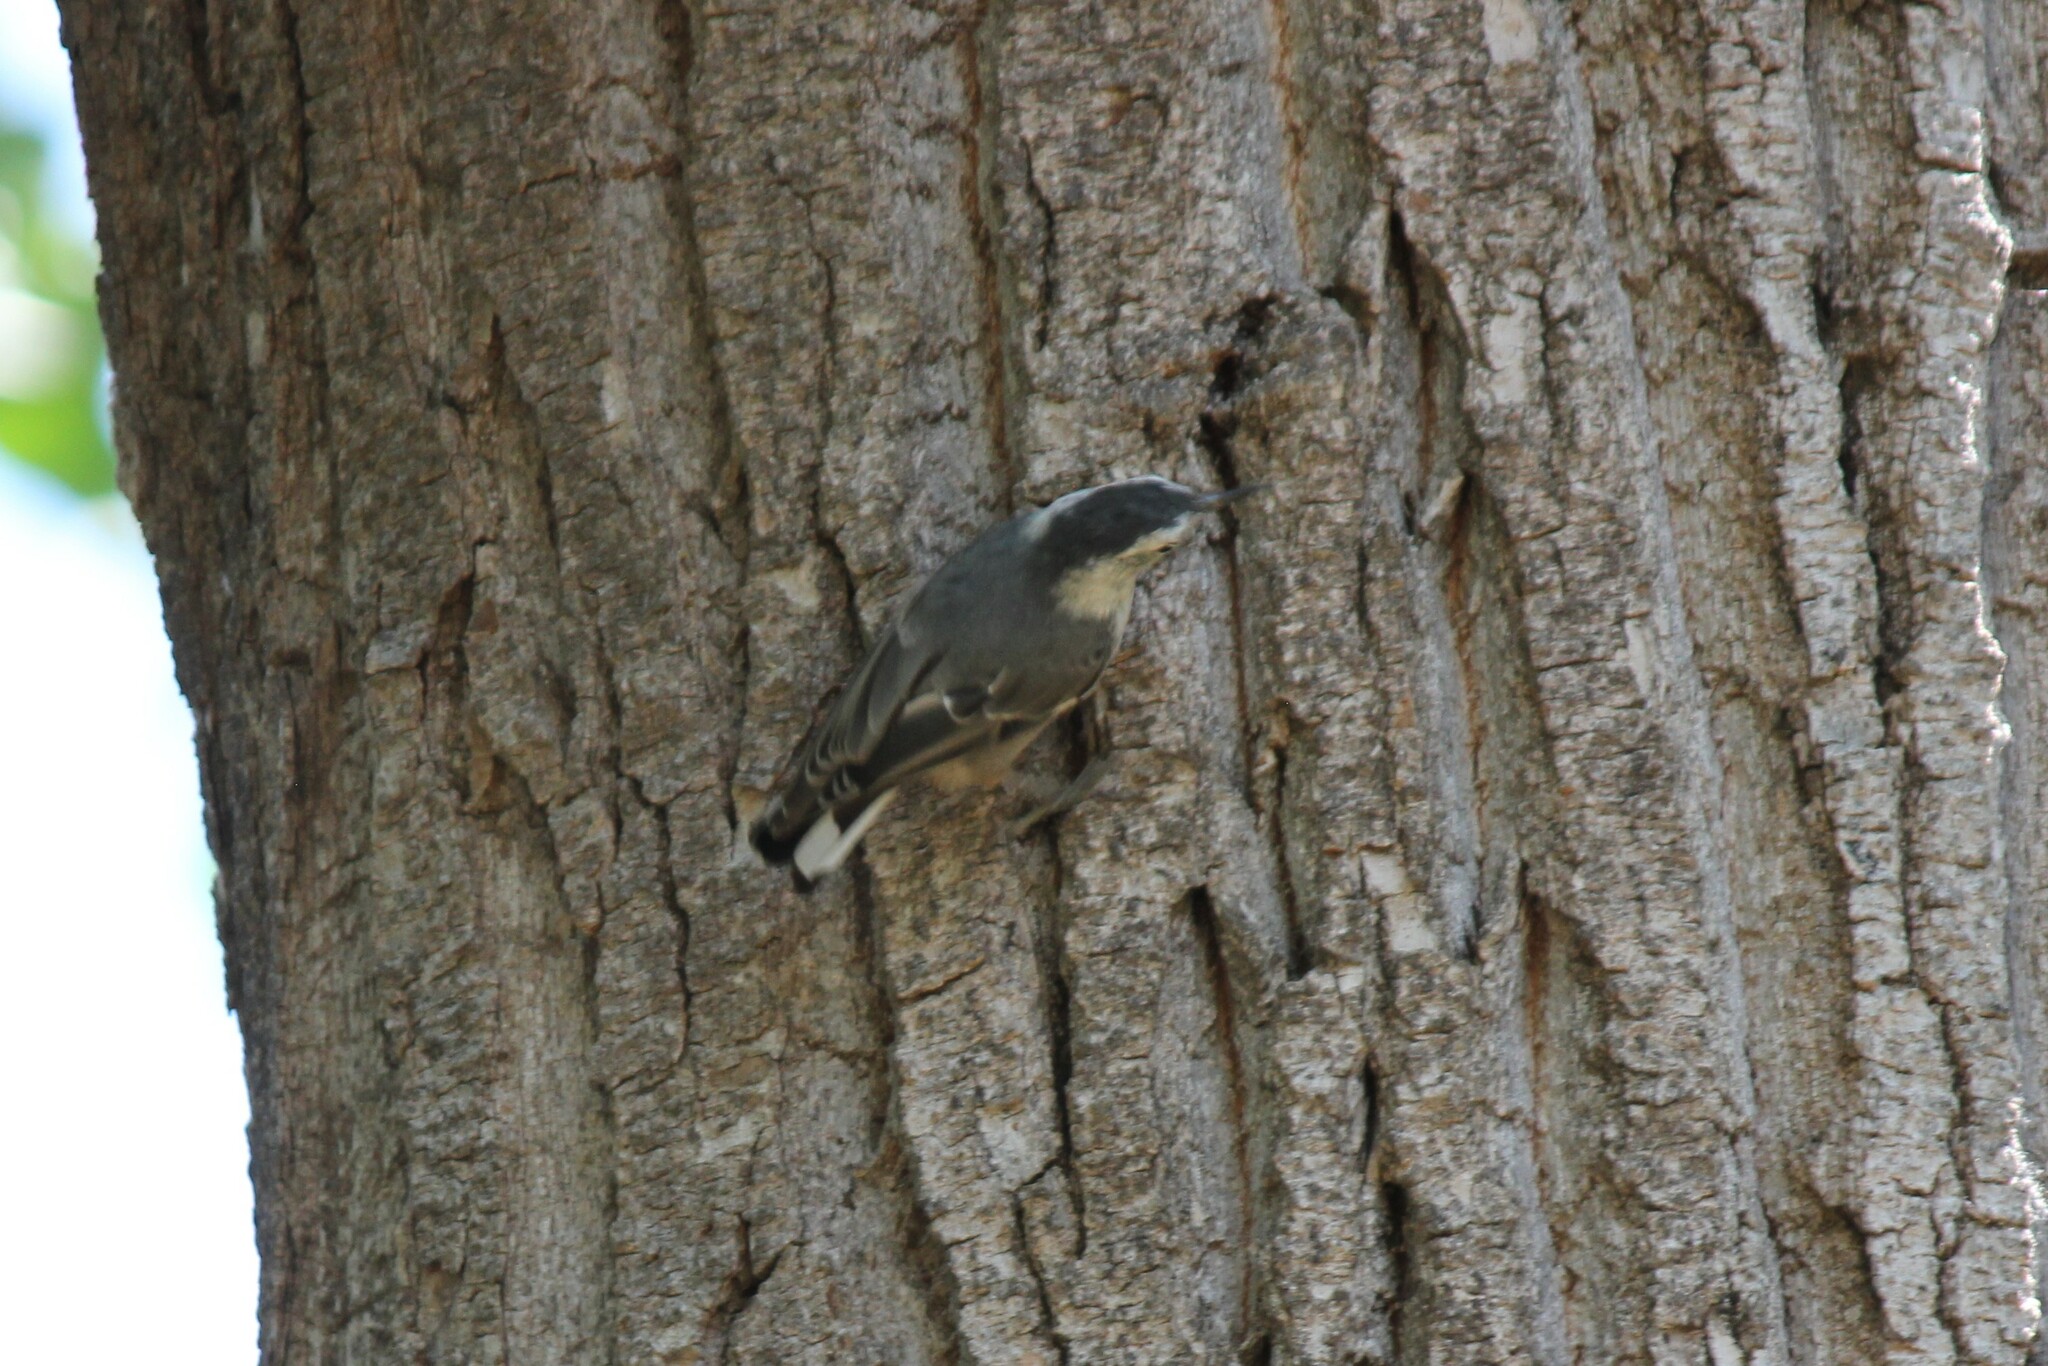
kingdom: Animalia
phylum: Chordata
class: Aves
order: Passeriformes
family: Sittidae
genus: Sitta
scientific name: Sitta carolinensis
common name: White-breasted nuthatch
